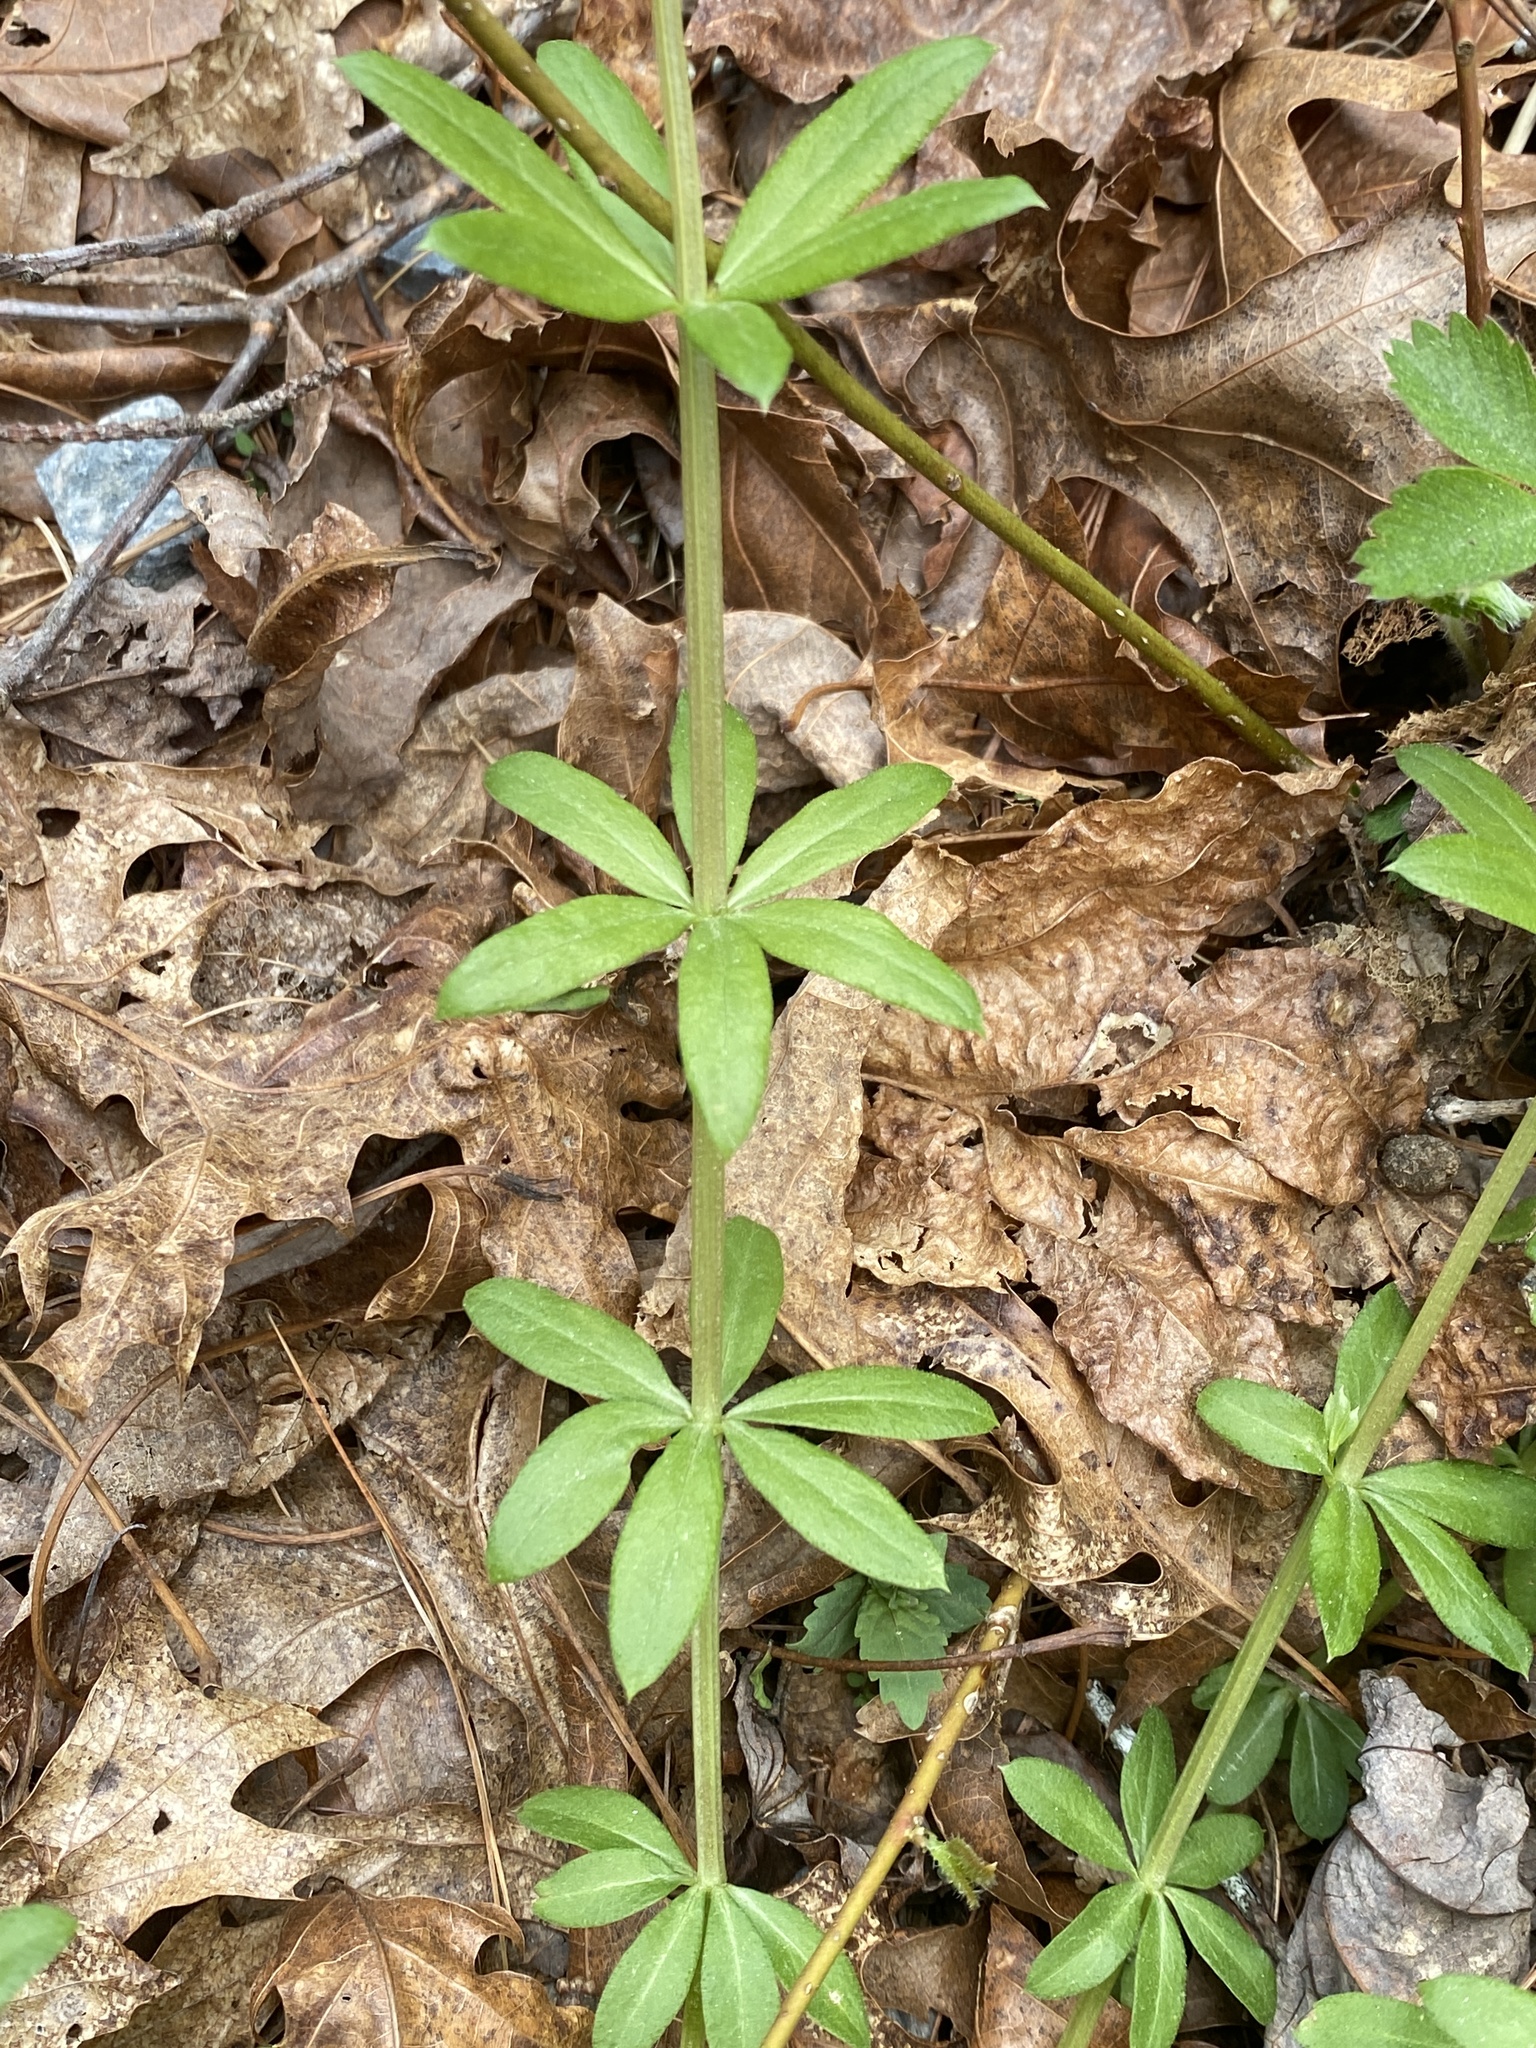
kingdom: Plantae
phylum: Tracheophyta
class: Magnoliopsida
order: Gentianales
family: Rubiaceae
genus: Galium
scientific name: Galium triflorum
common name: Fragrant bedstraw
